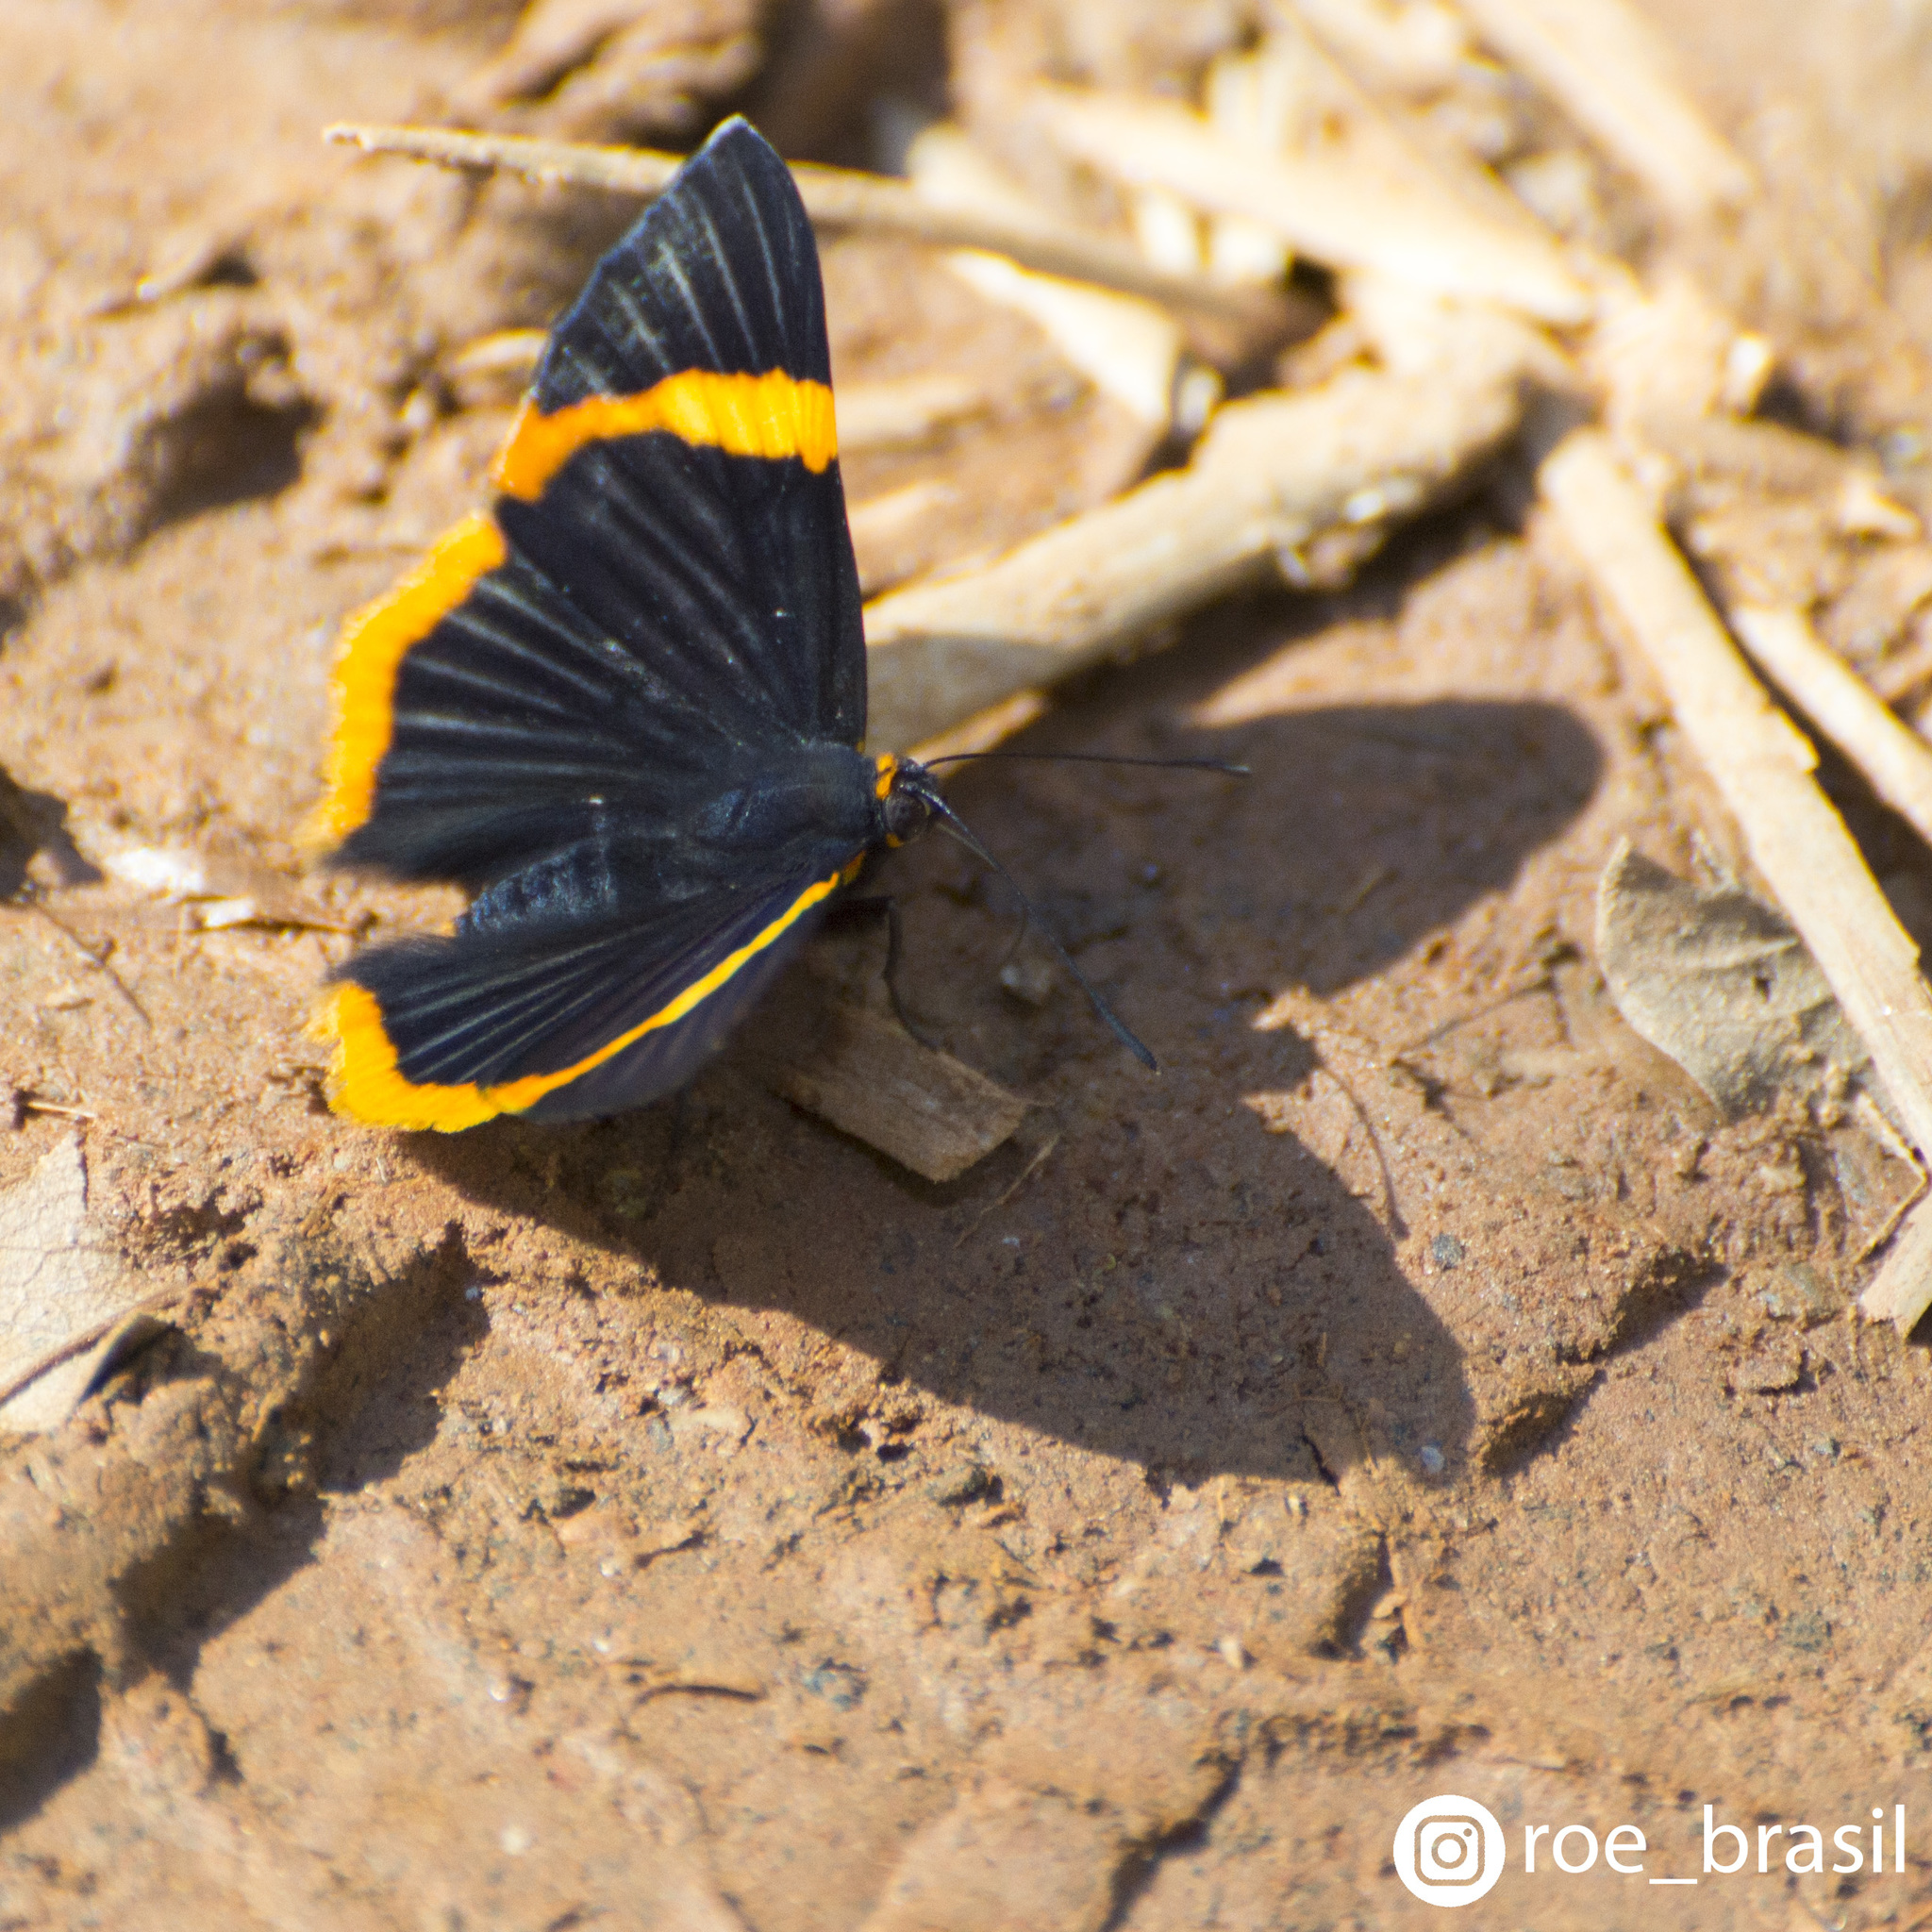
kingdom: Animalia
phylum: Arthropoda
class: Insecta
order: Lepidoptera
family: Riodinidae
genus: Riodina
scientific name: Riodina lycisca
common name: Lycisca metalmark
